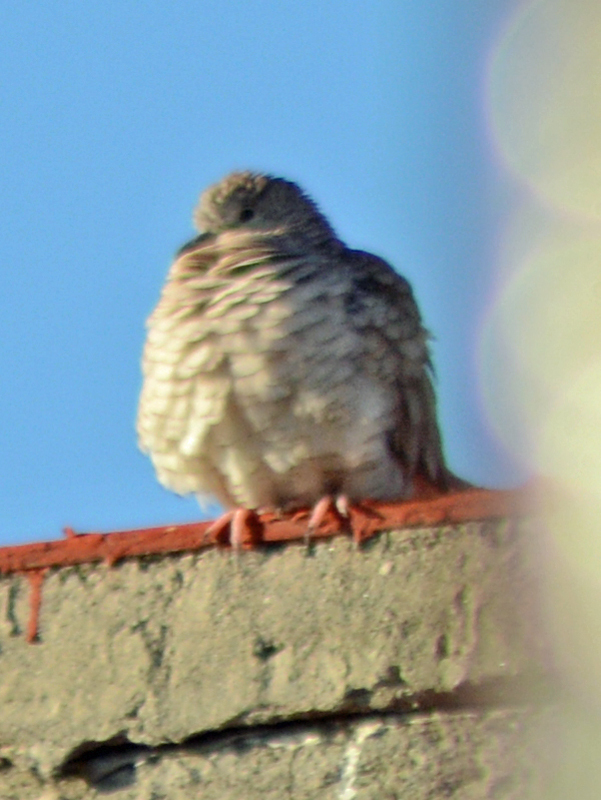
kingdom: Animalia
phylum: Chordata
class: Aves
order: Columbiformes
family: Columbidae
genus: Columbina
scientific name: Columbina inca
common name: Inca dove
